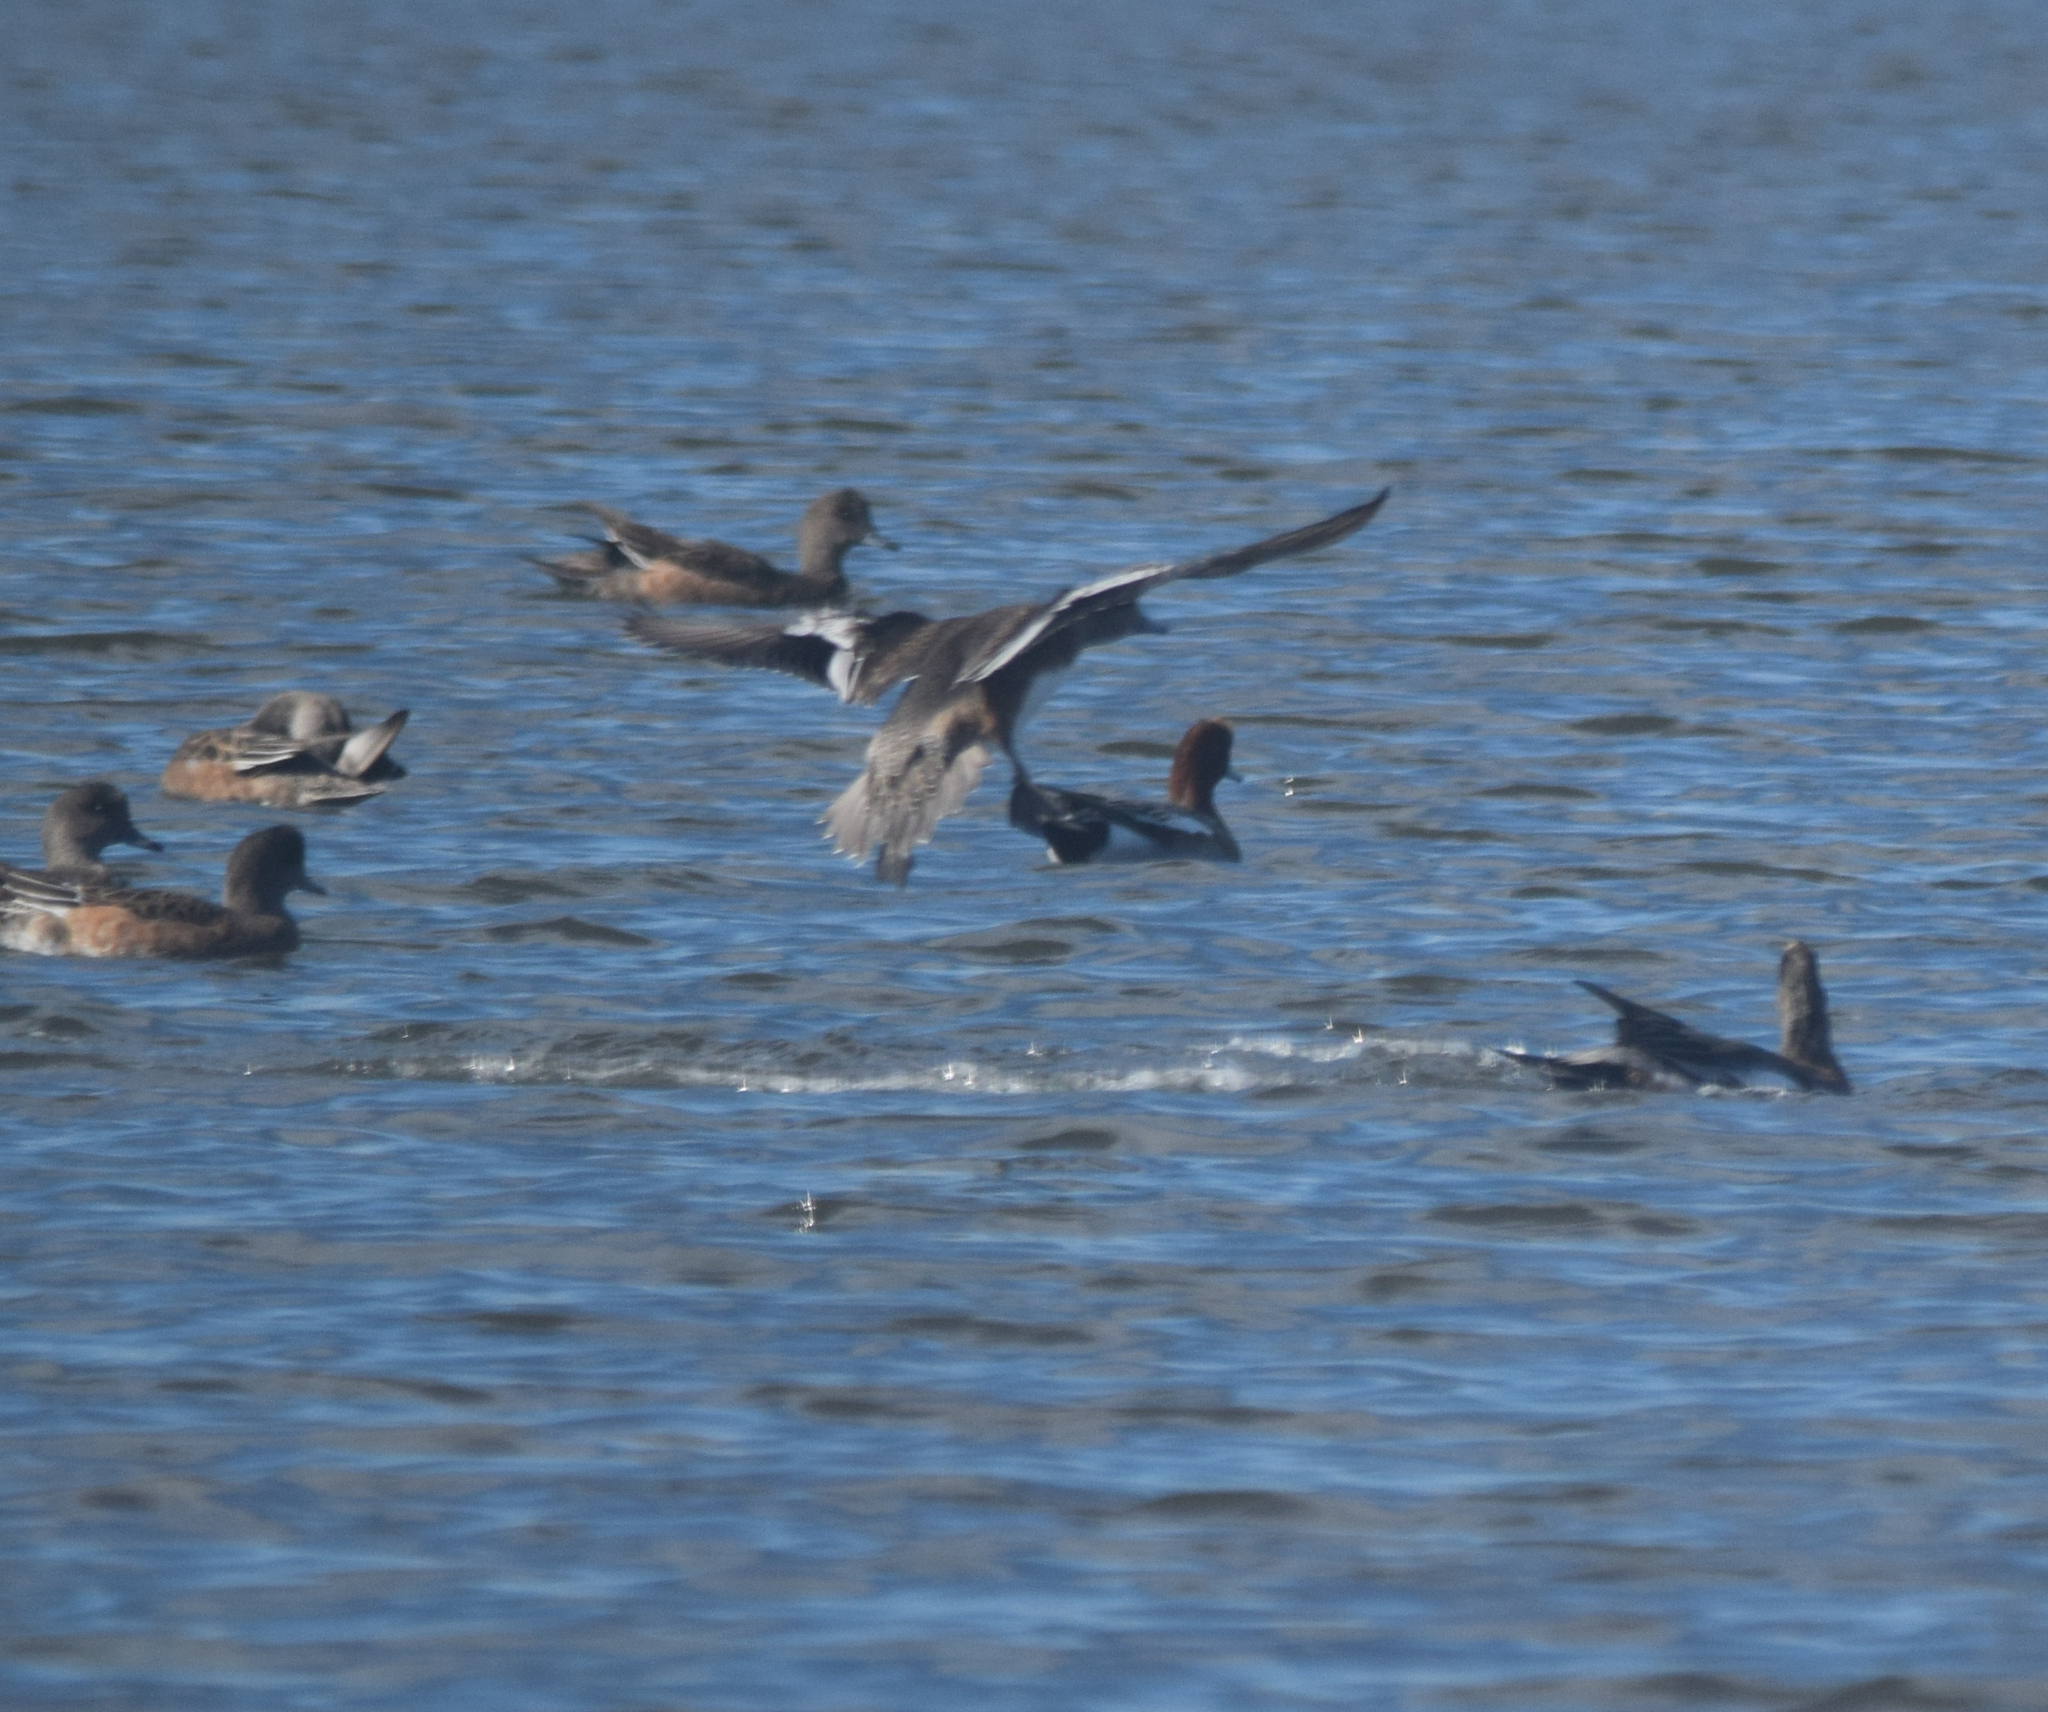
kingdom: Animalia
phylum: Chordata
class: Aves
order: Anseriformes
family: Anatidae
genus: Mareca
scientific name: Mareca penelope
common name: Eurasian wigeon
